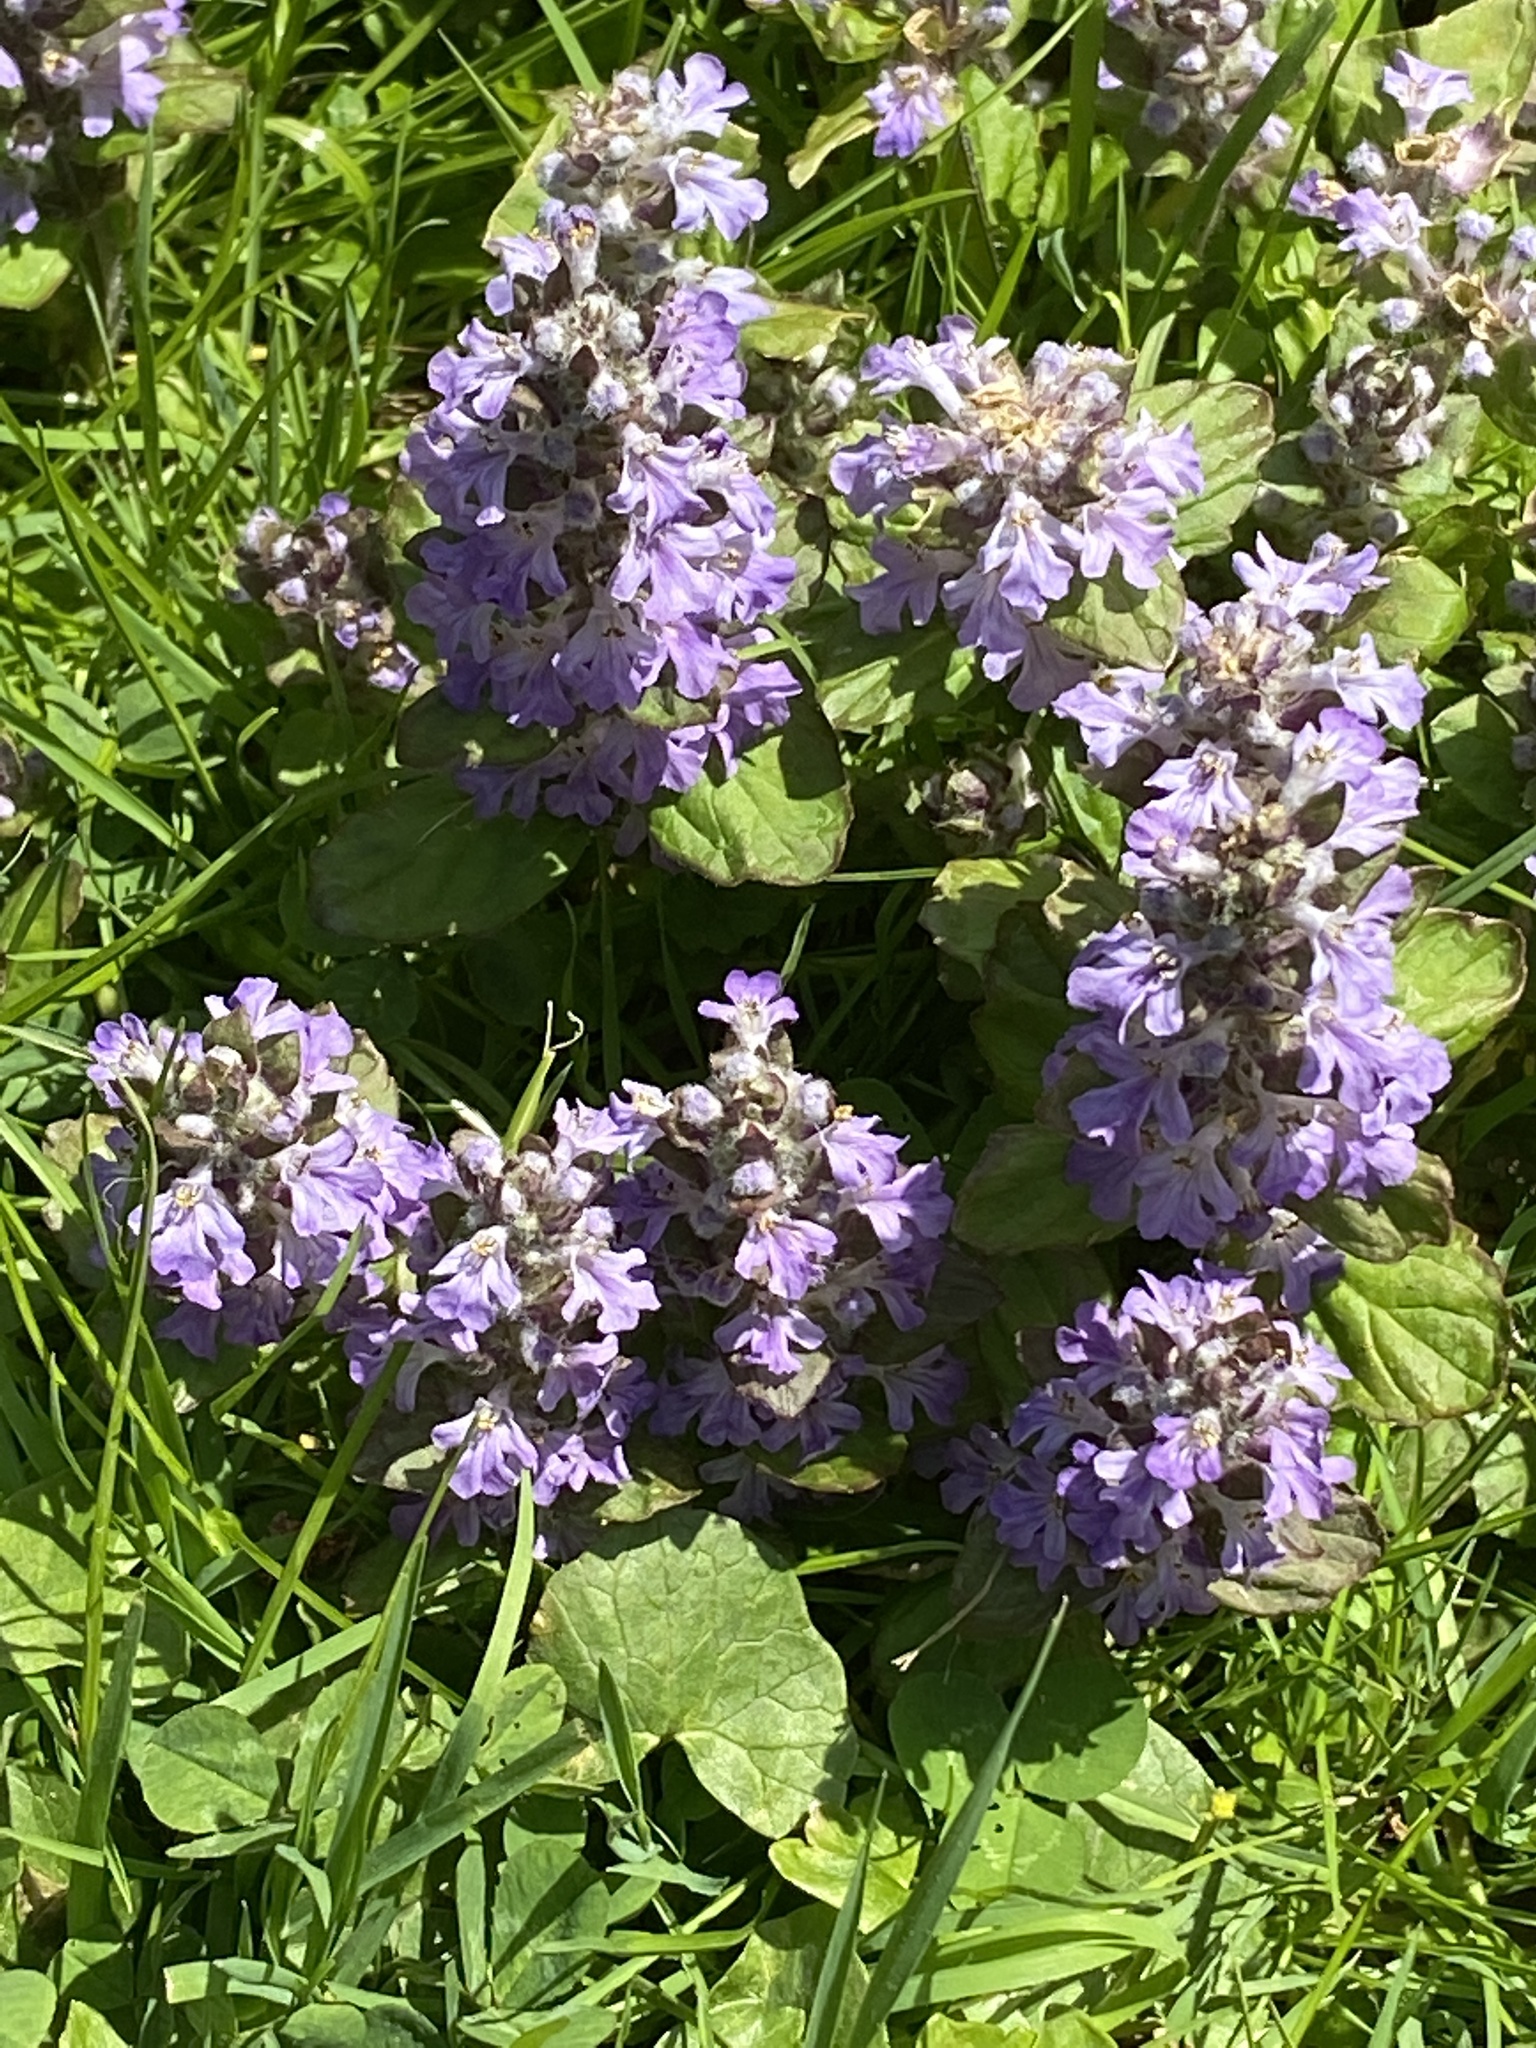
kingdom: Plantae
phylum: Tracheophyta
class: Magnoliopsida
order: Lamiales
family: Lamiaceae
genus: Ajuga
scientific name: Ajuga reptans
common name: Bugle
